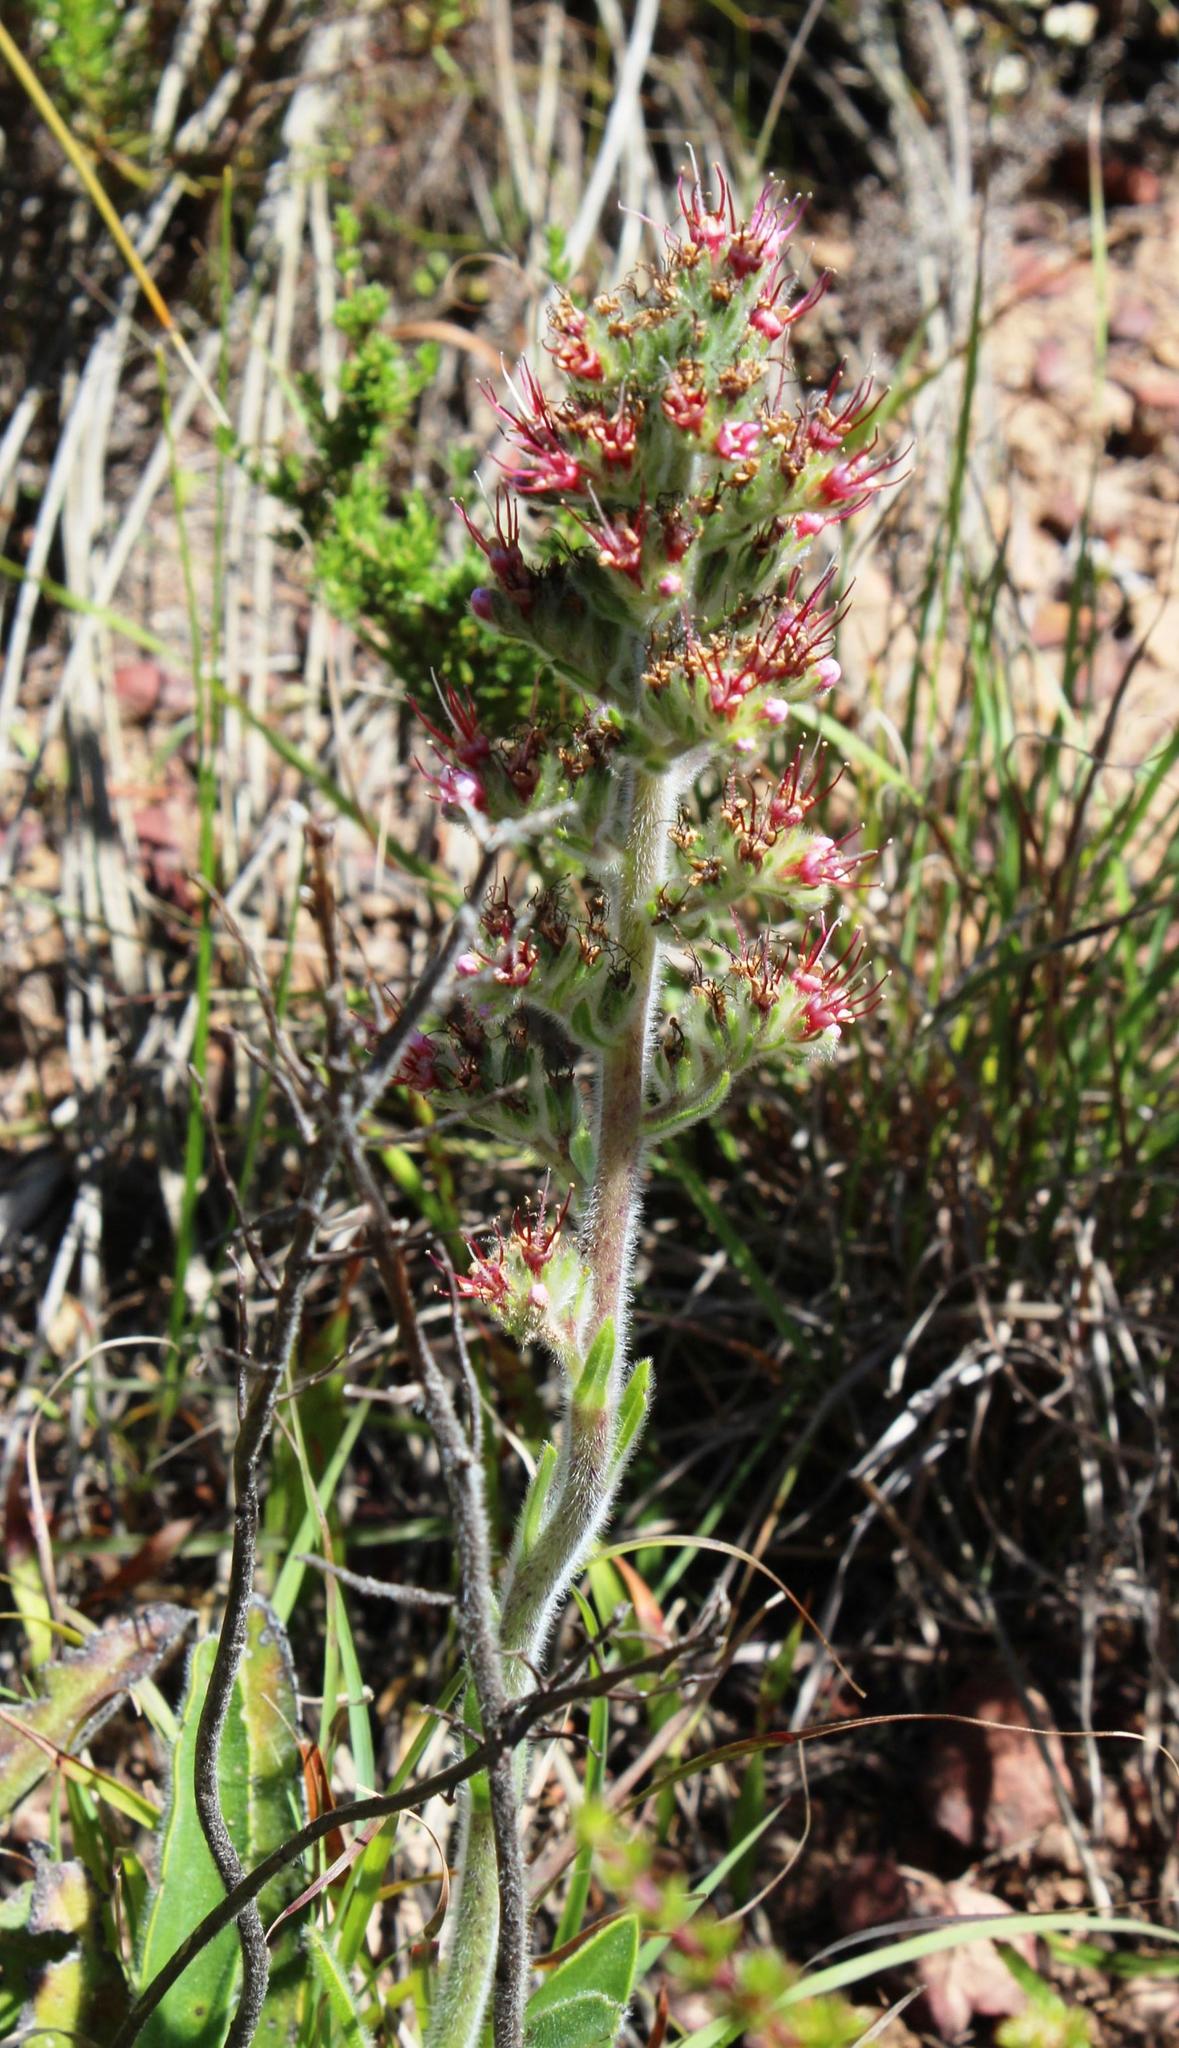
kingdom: Plantae
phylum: Tracheophyta
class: Magnoliopsida
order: Boraginales
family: Boraginaceae
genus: Lobostemon
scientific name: Lobostemon ecklonianus
